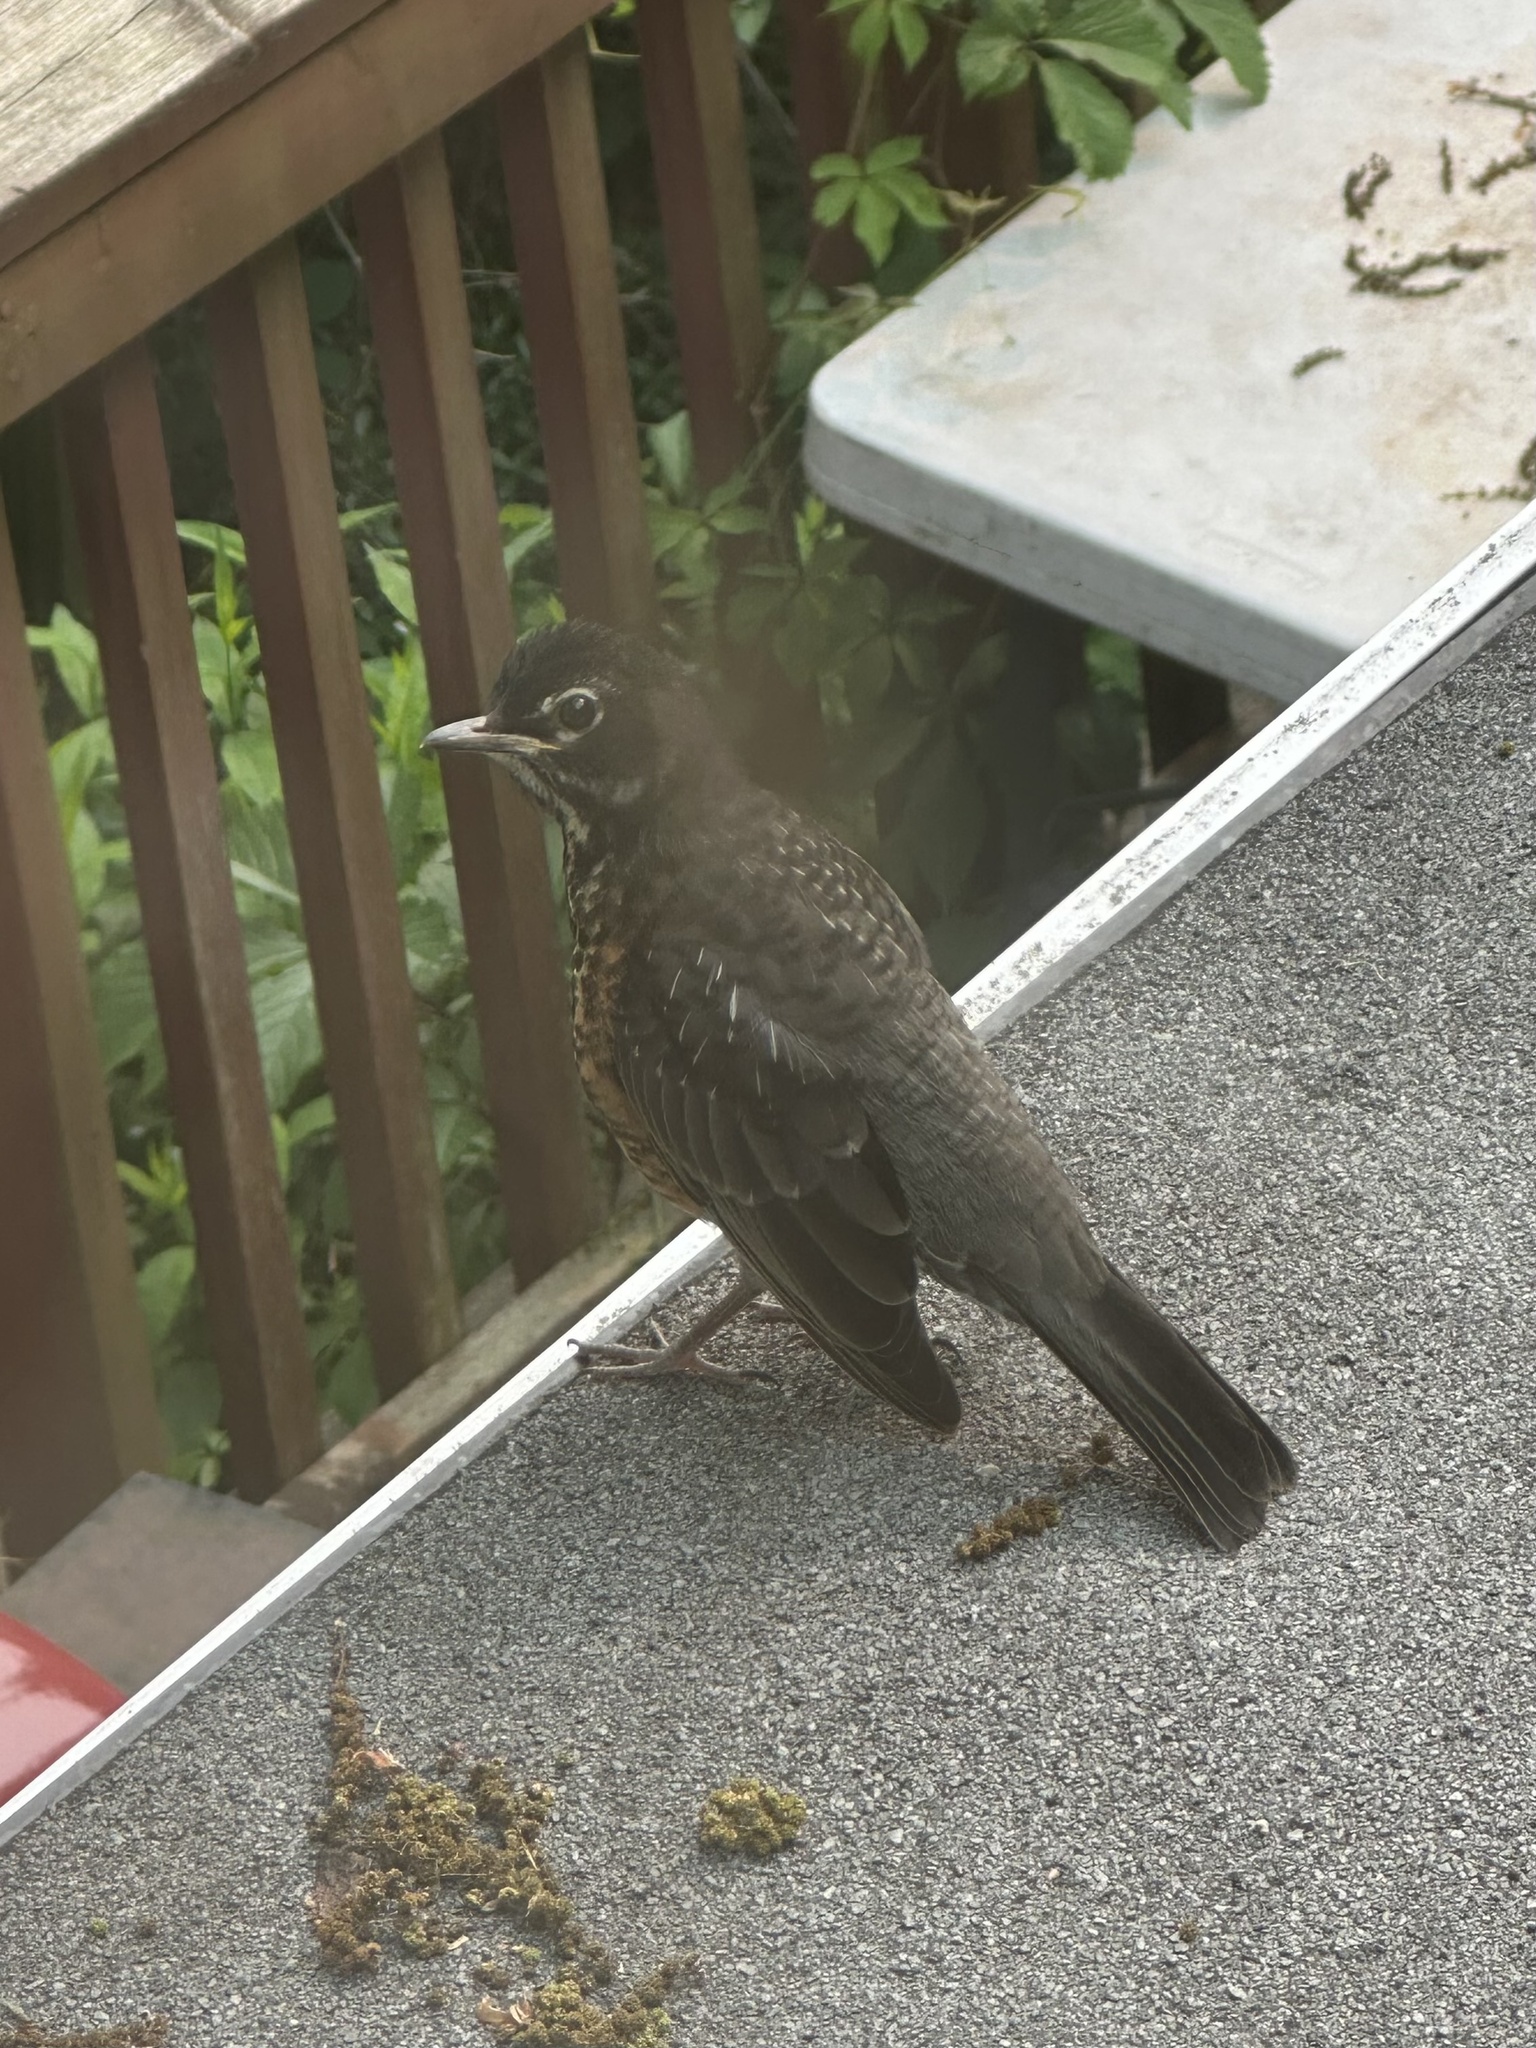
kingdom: Animalia
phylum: Chordata
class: Aves
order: Passeriformes
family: Turdidae
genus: Turdus
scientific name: Turdus migratorius
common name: American robin
